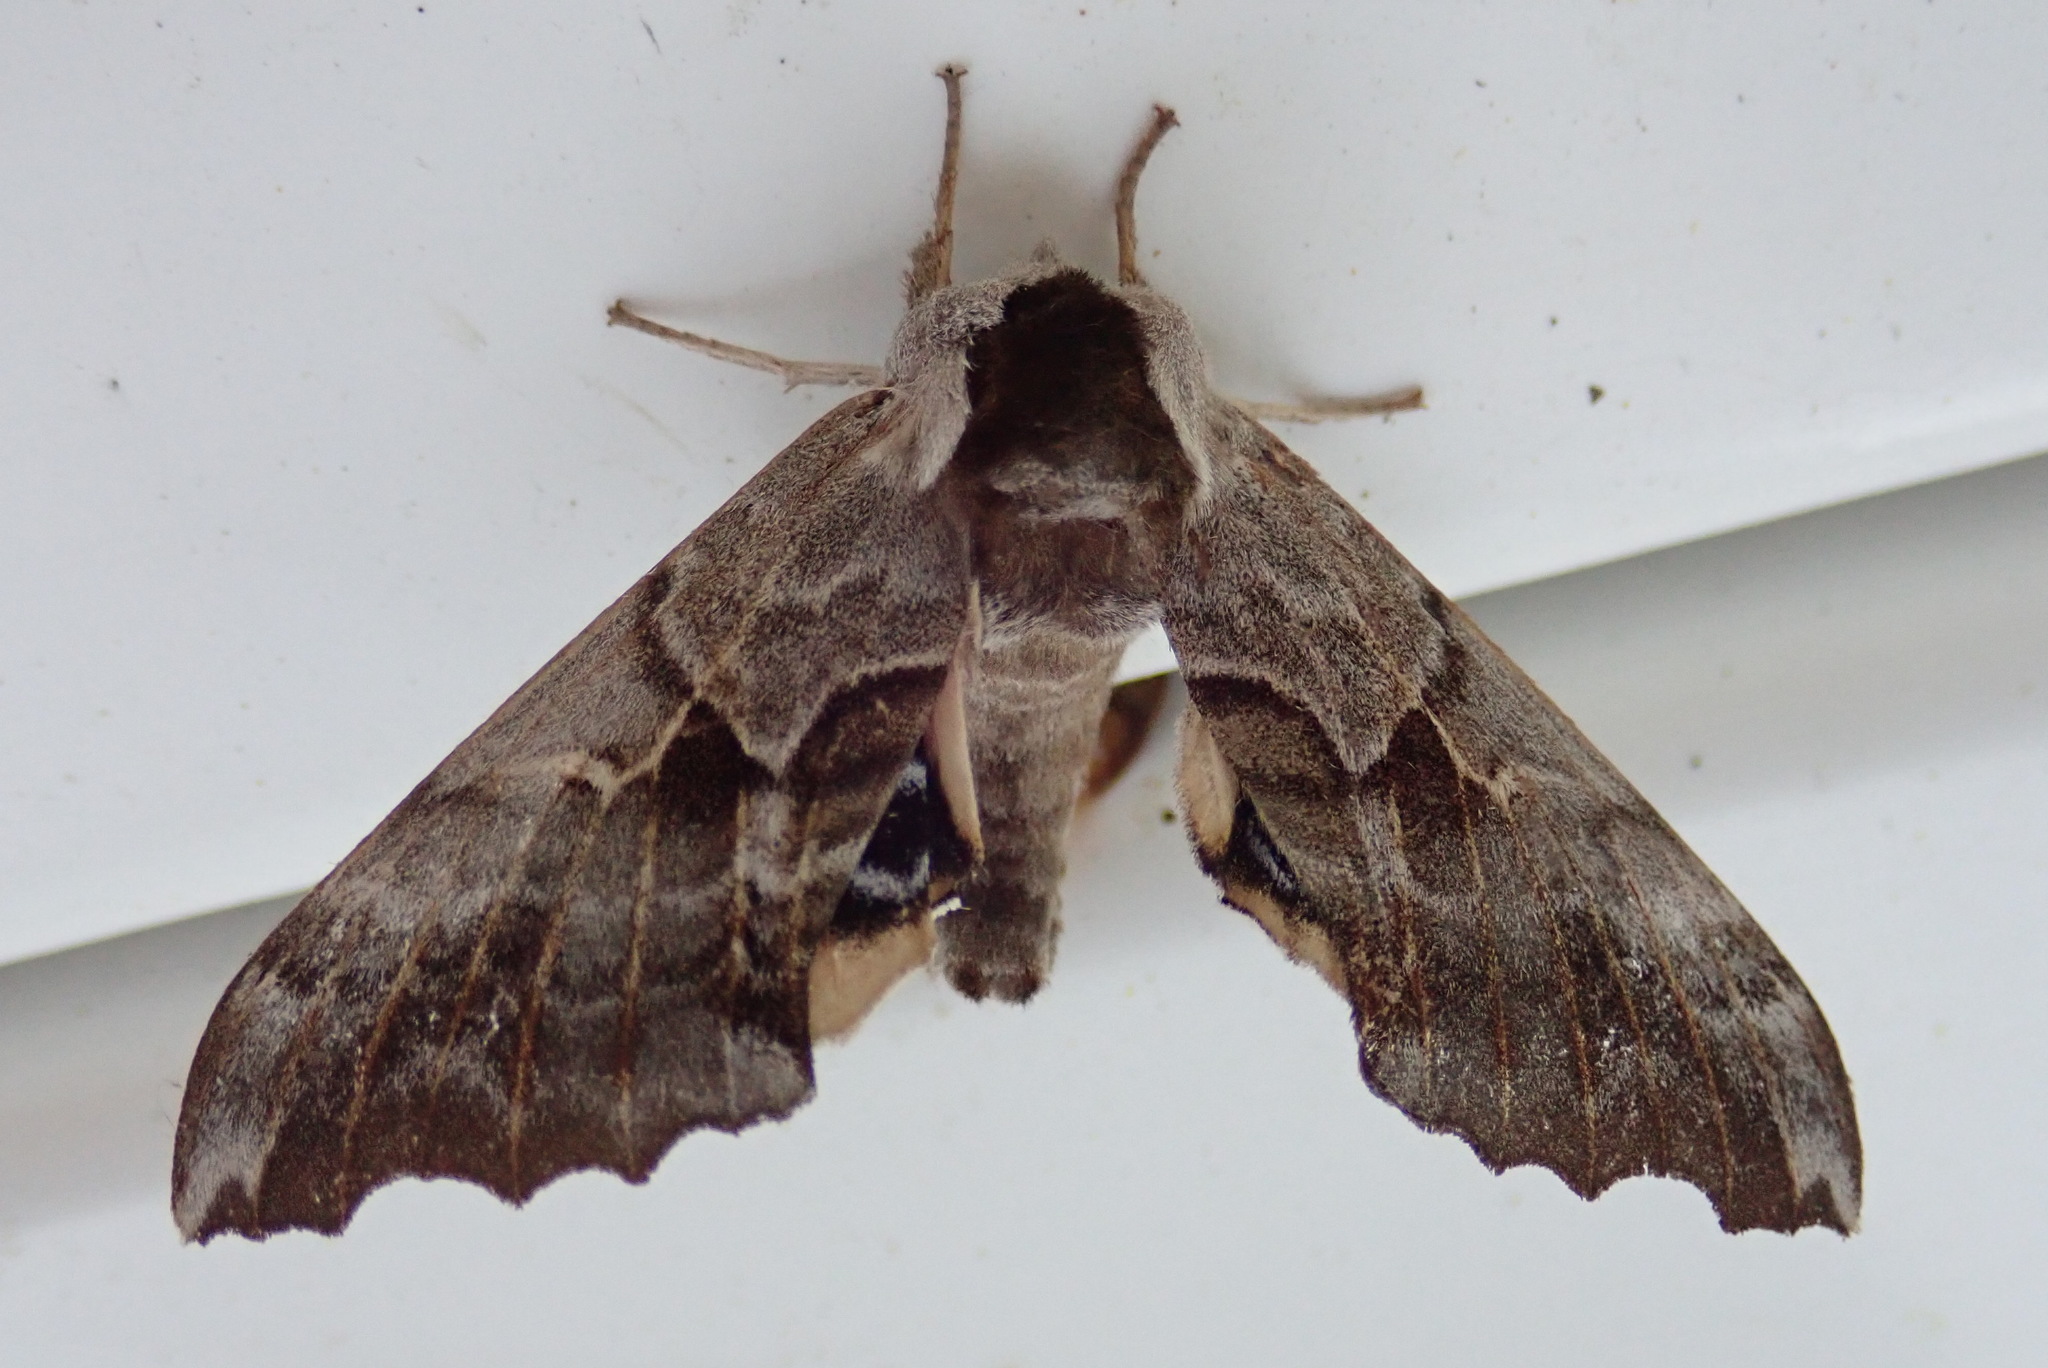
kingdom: Animalia
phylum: Arthropoda
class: Insecta
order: Lepidoptera
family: Sphingidae
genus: Smerinthus
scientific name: Smerinthus cerisyi
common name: Cerisy's sphinx moth
